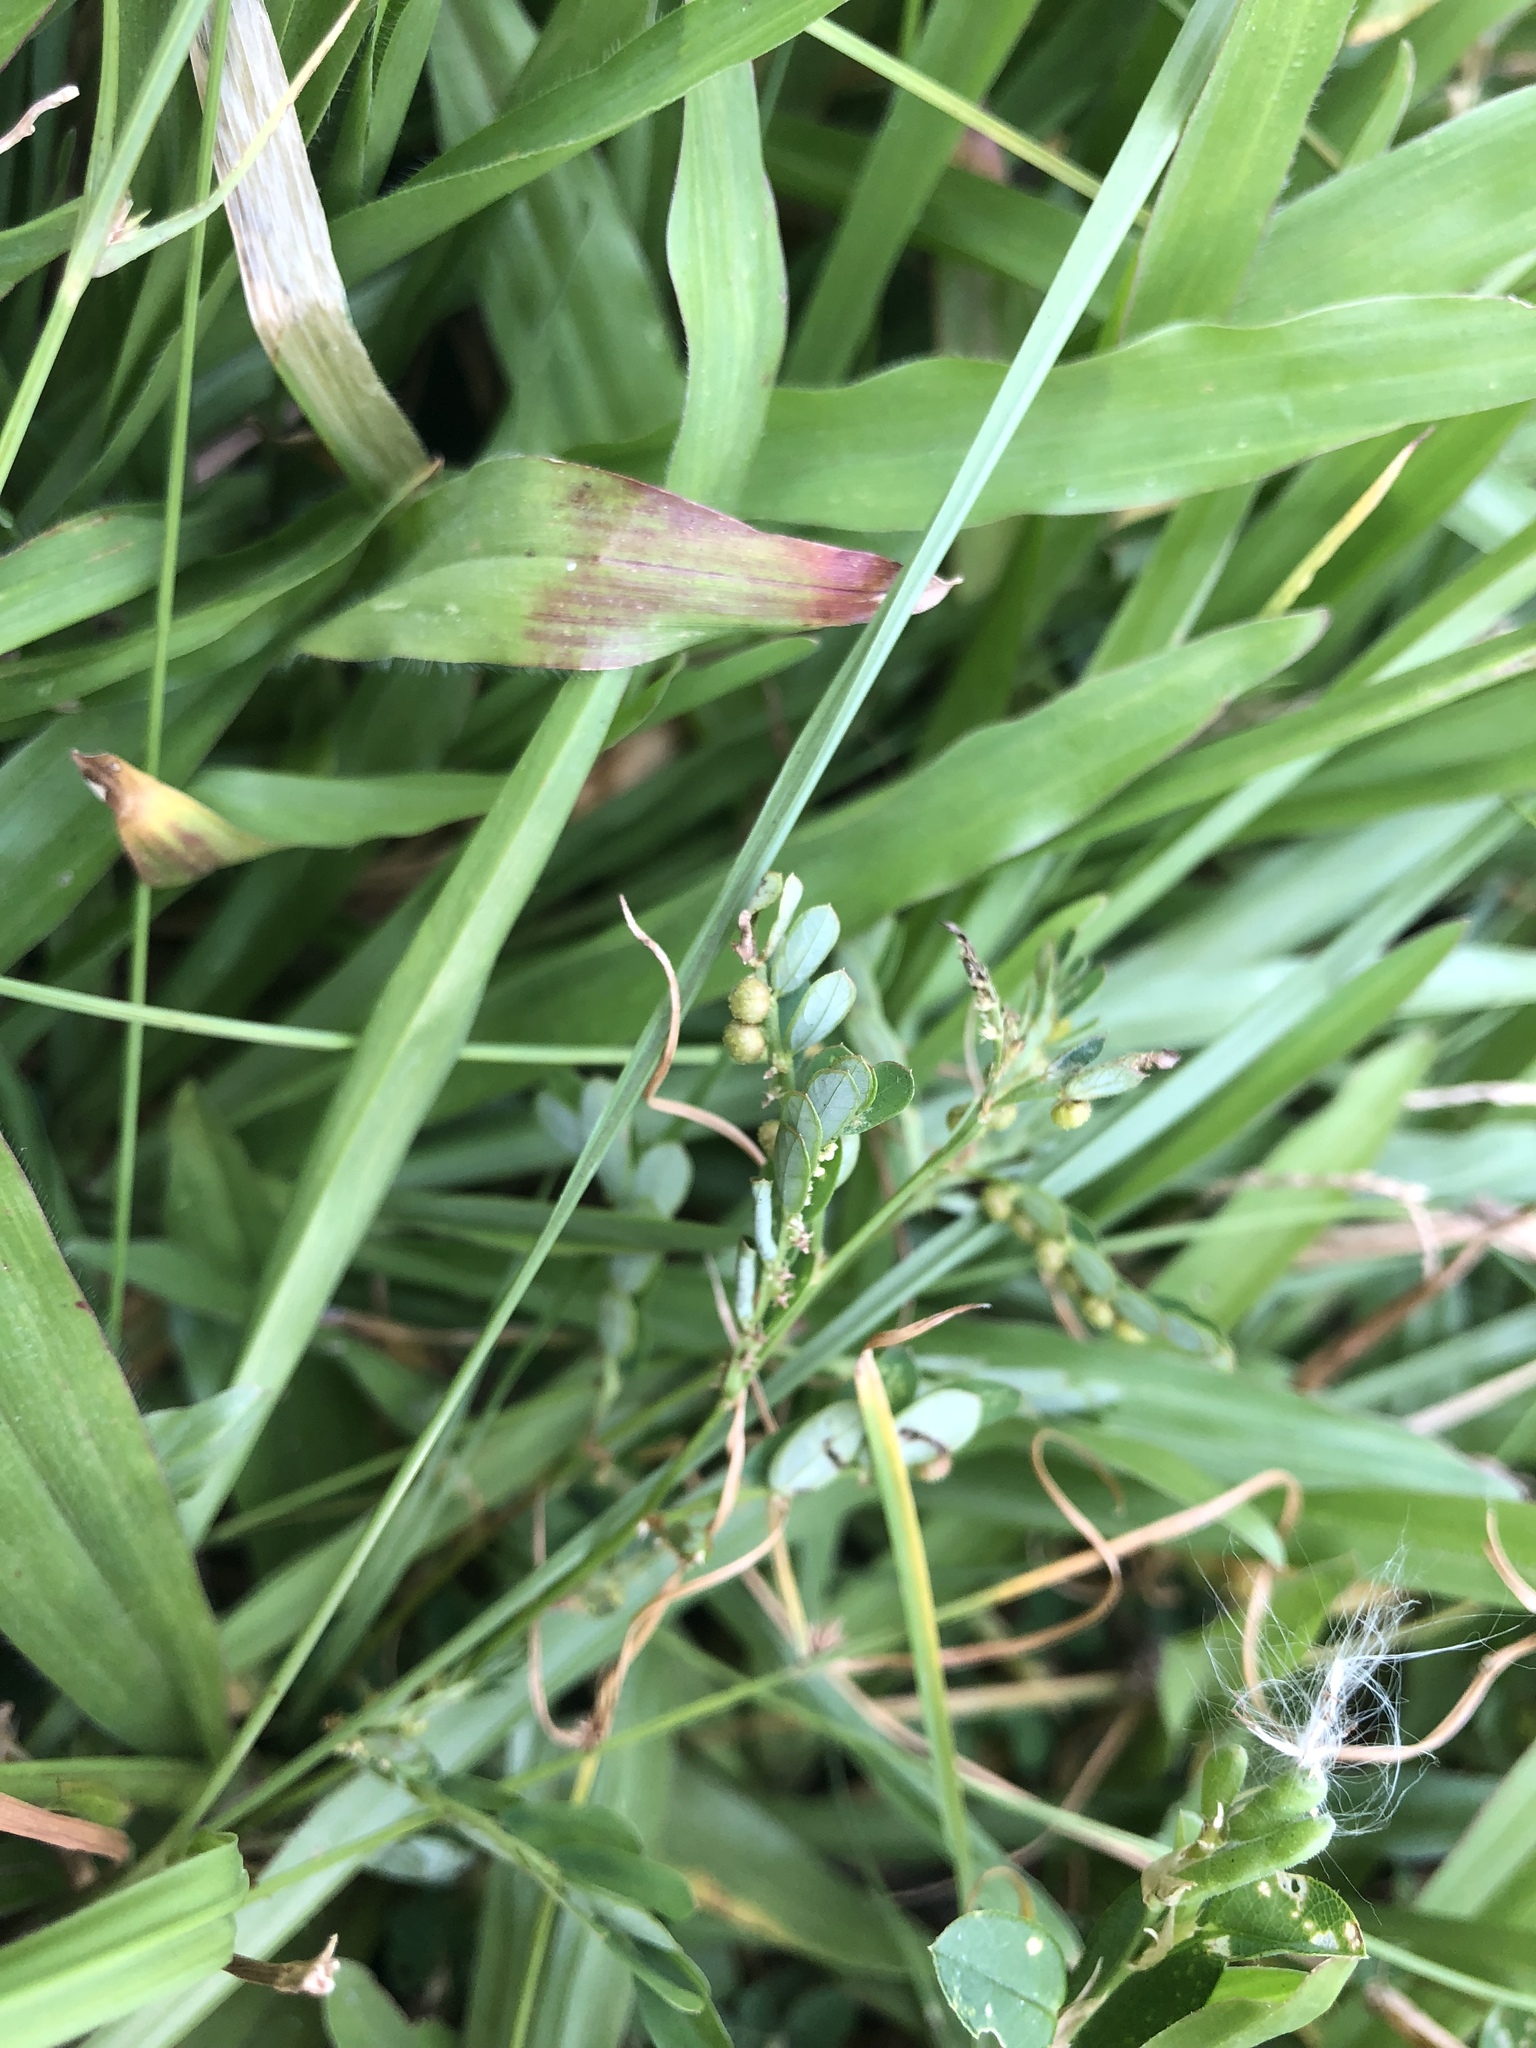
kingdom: Plantae
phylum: Tracheophyta
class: Magnoliopsida
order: Malpighiales
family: Phyllanthaceae
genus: Phyllanthus
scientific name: Phyllanthus urinaria
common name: Chamber bitter
